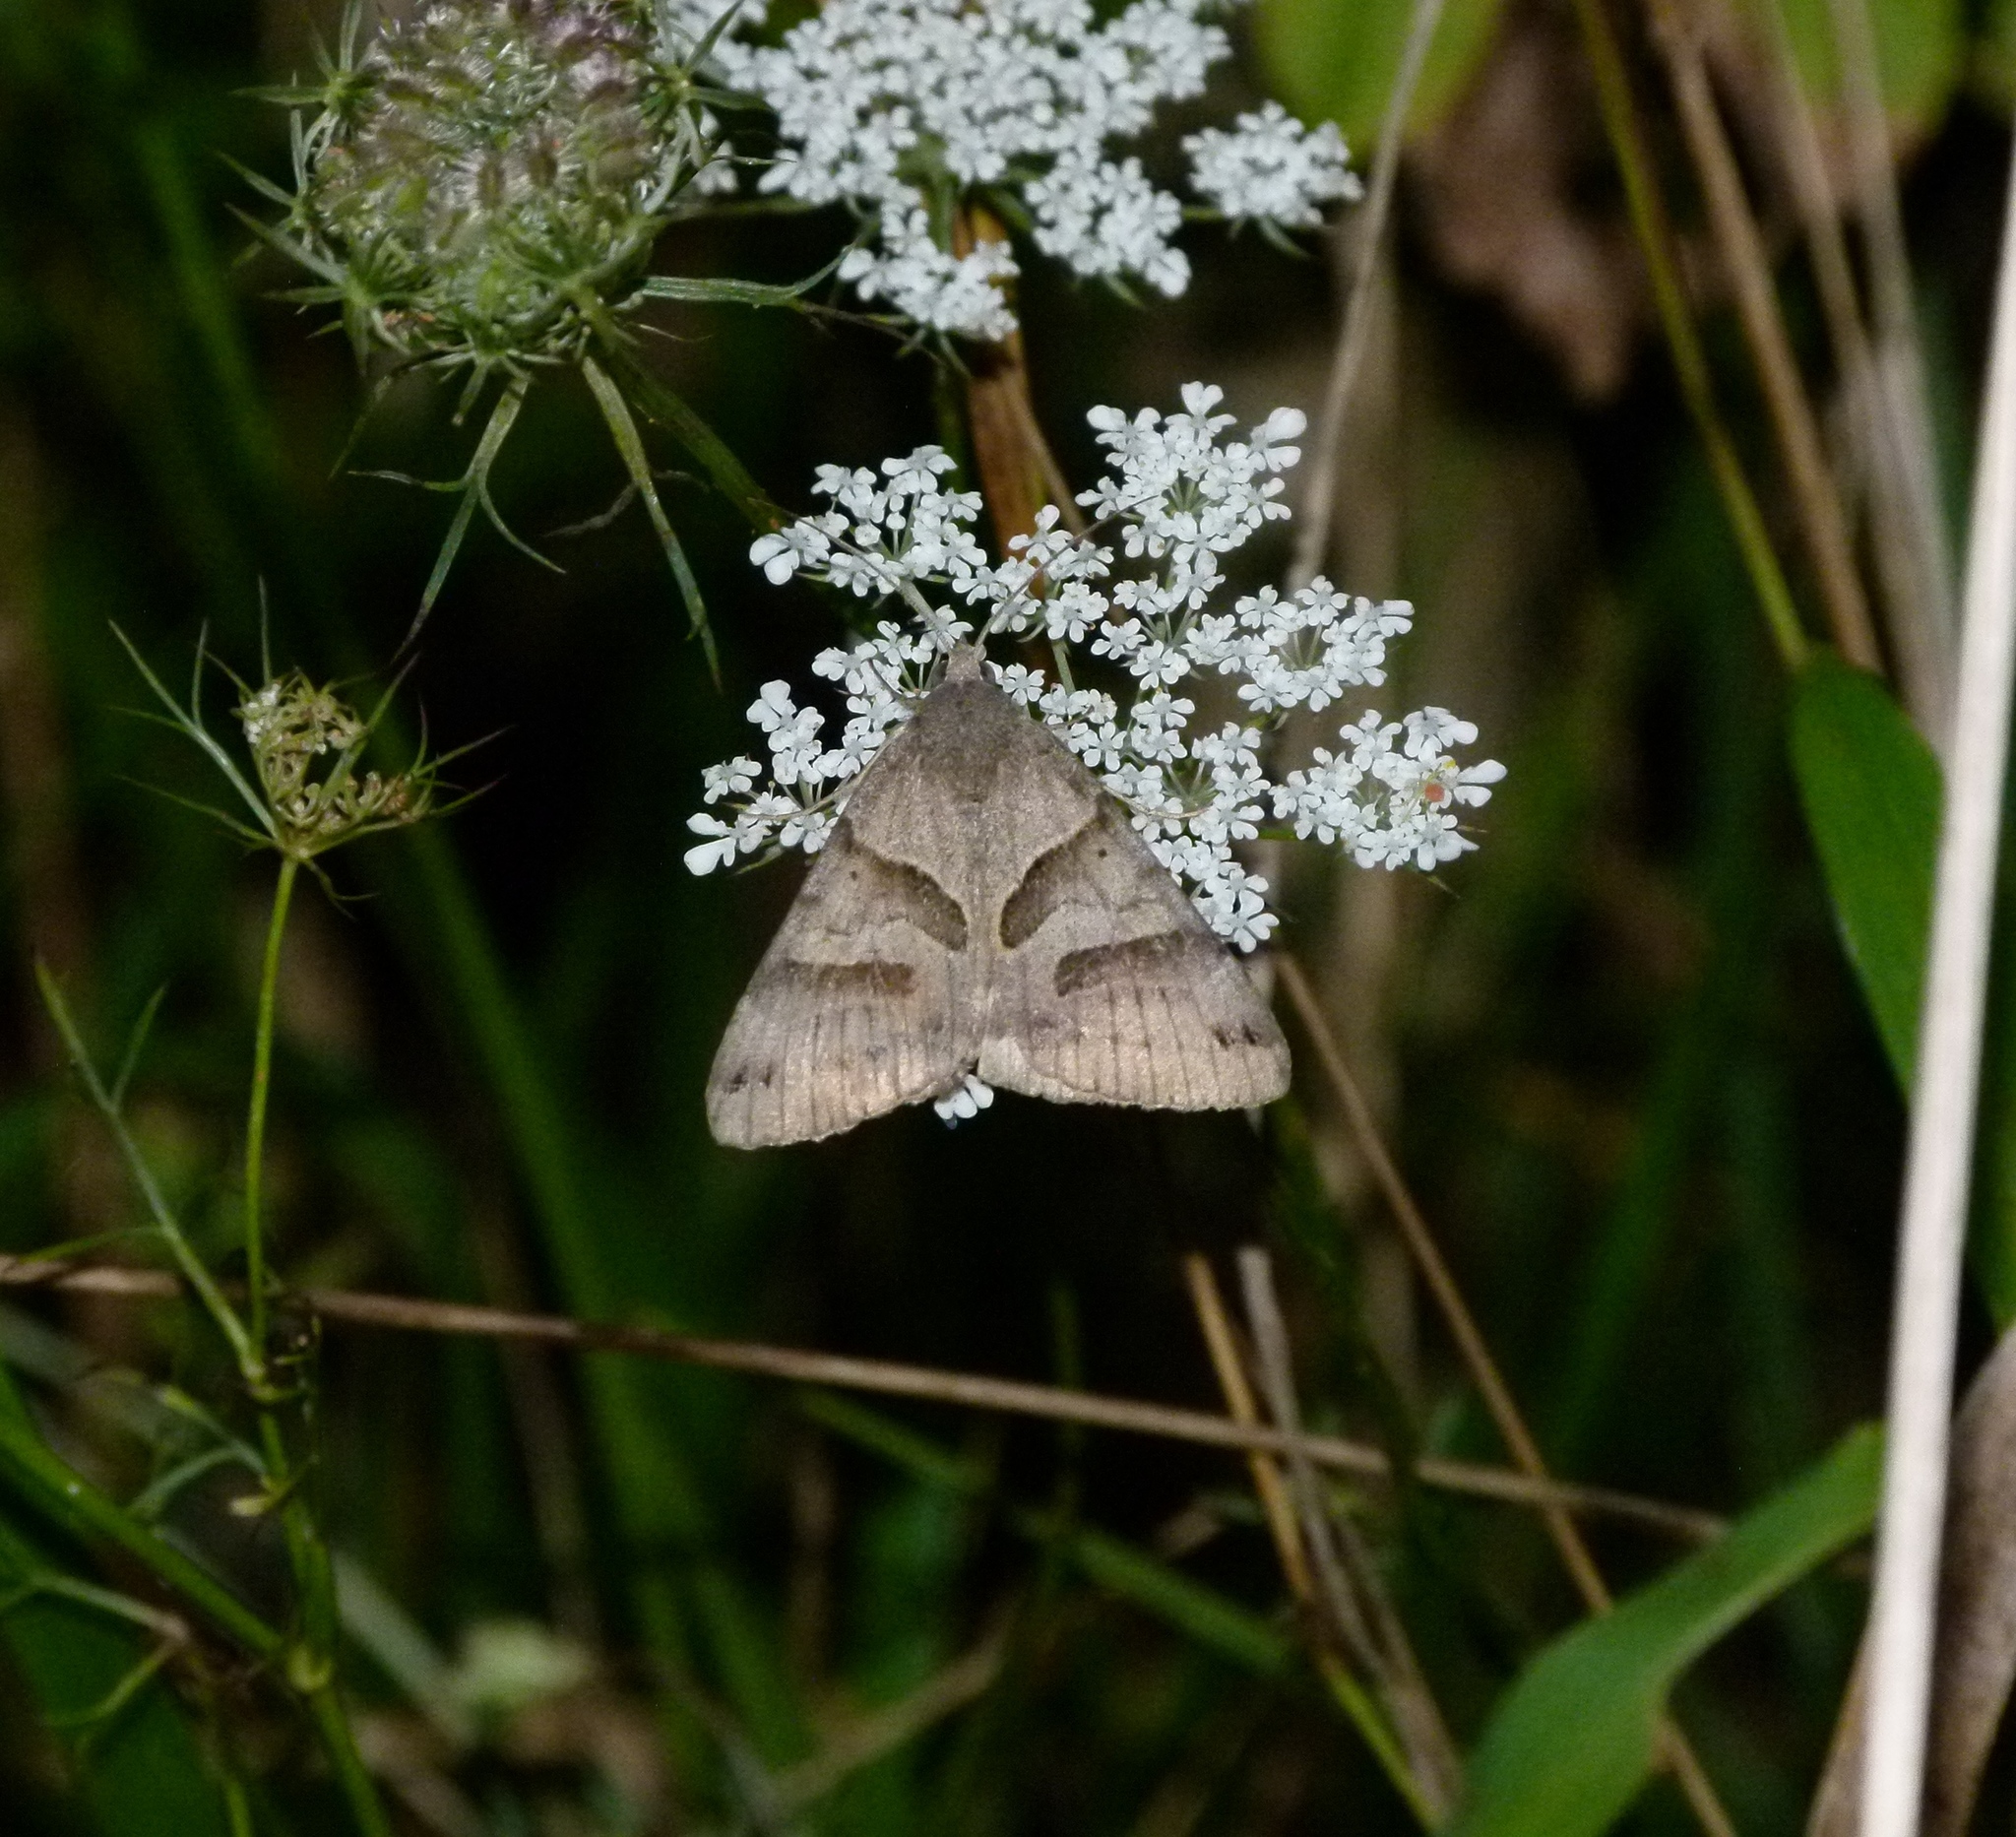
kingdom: Animalia
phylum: Arthropoda
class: Insecta
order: Lepidoptera
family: Erebidae
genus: Caenurgina
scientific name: Caenurgina erechtea
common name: Forage looper moth
